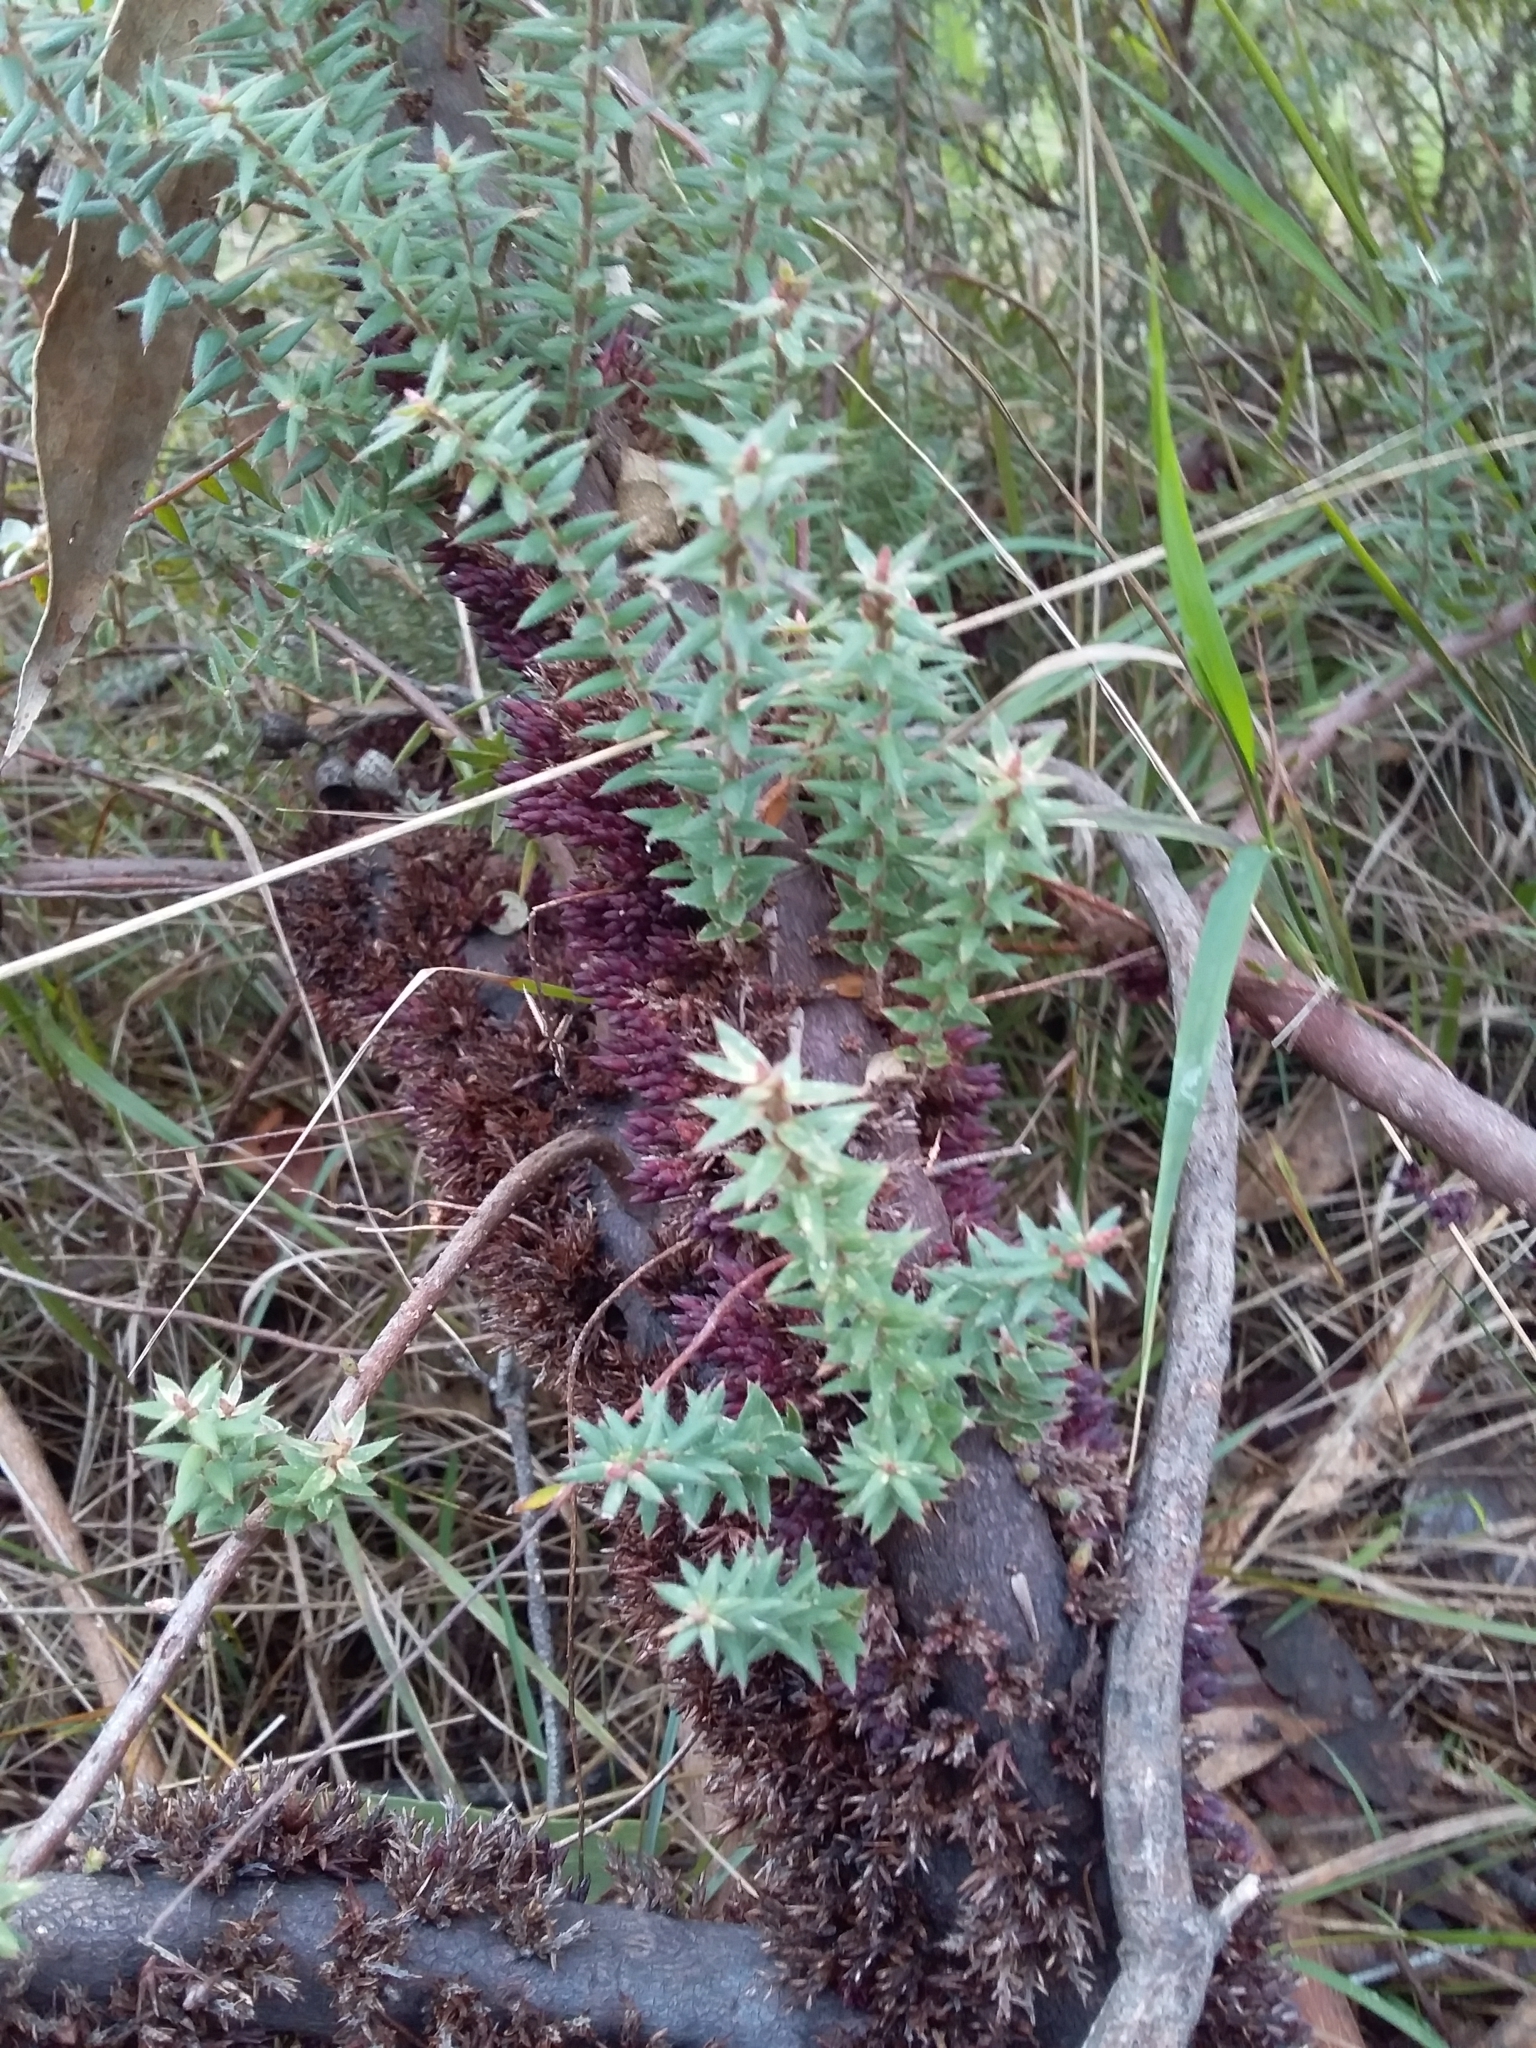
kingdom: Plantae
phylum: Tracheophyta
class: Magnoliopsida
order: Ericales
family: Ericaceae
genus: Acrotriche
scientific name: Acrotriche fasciculiflora
